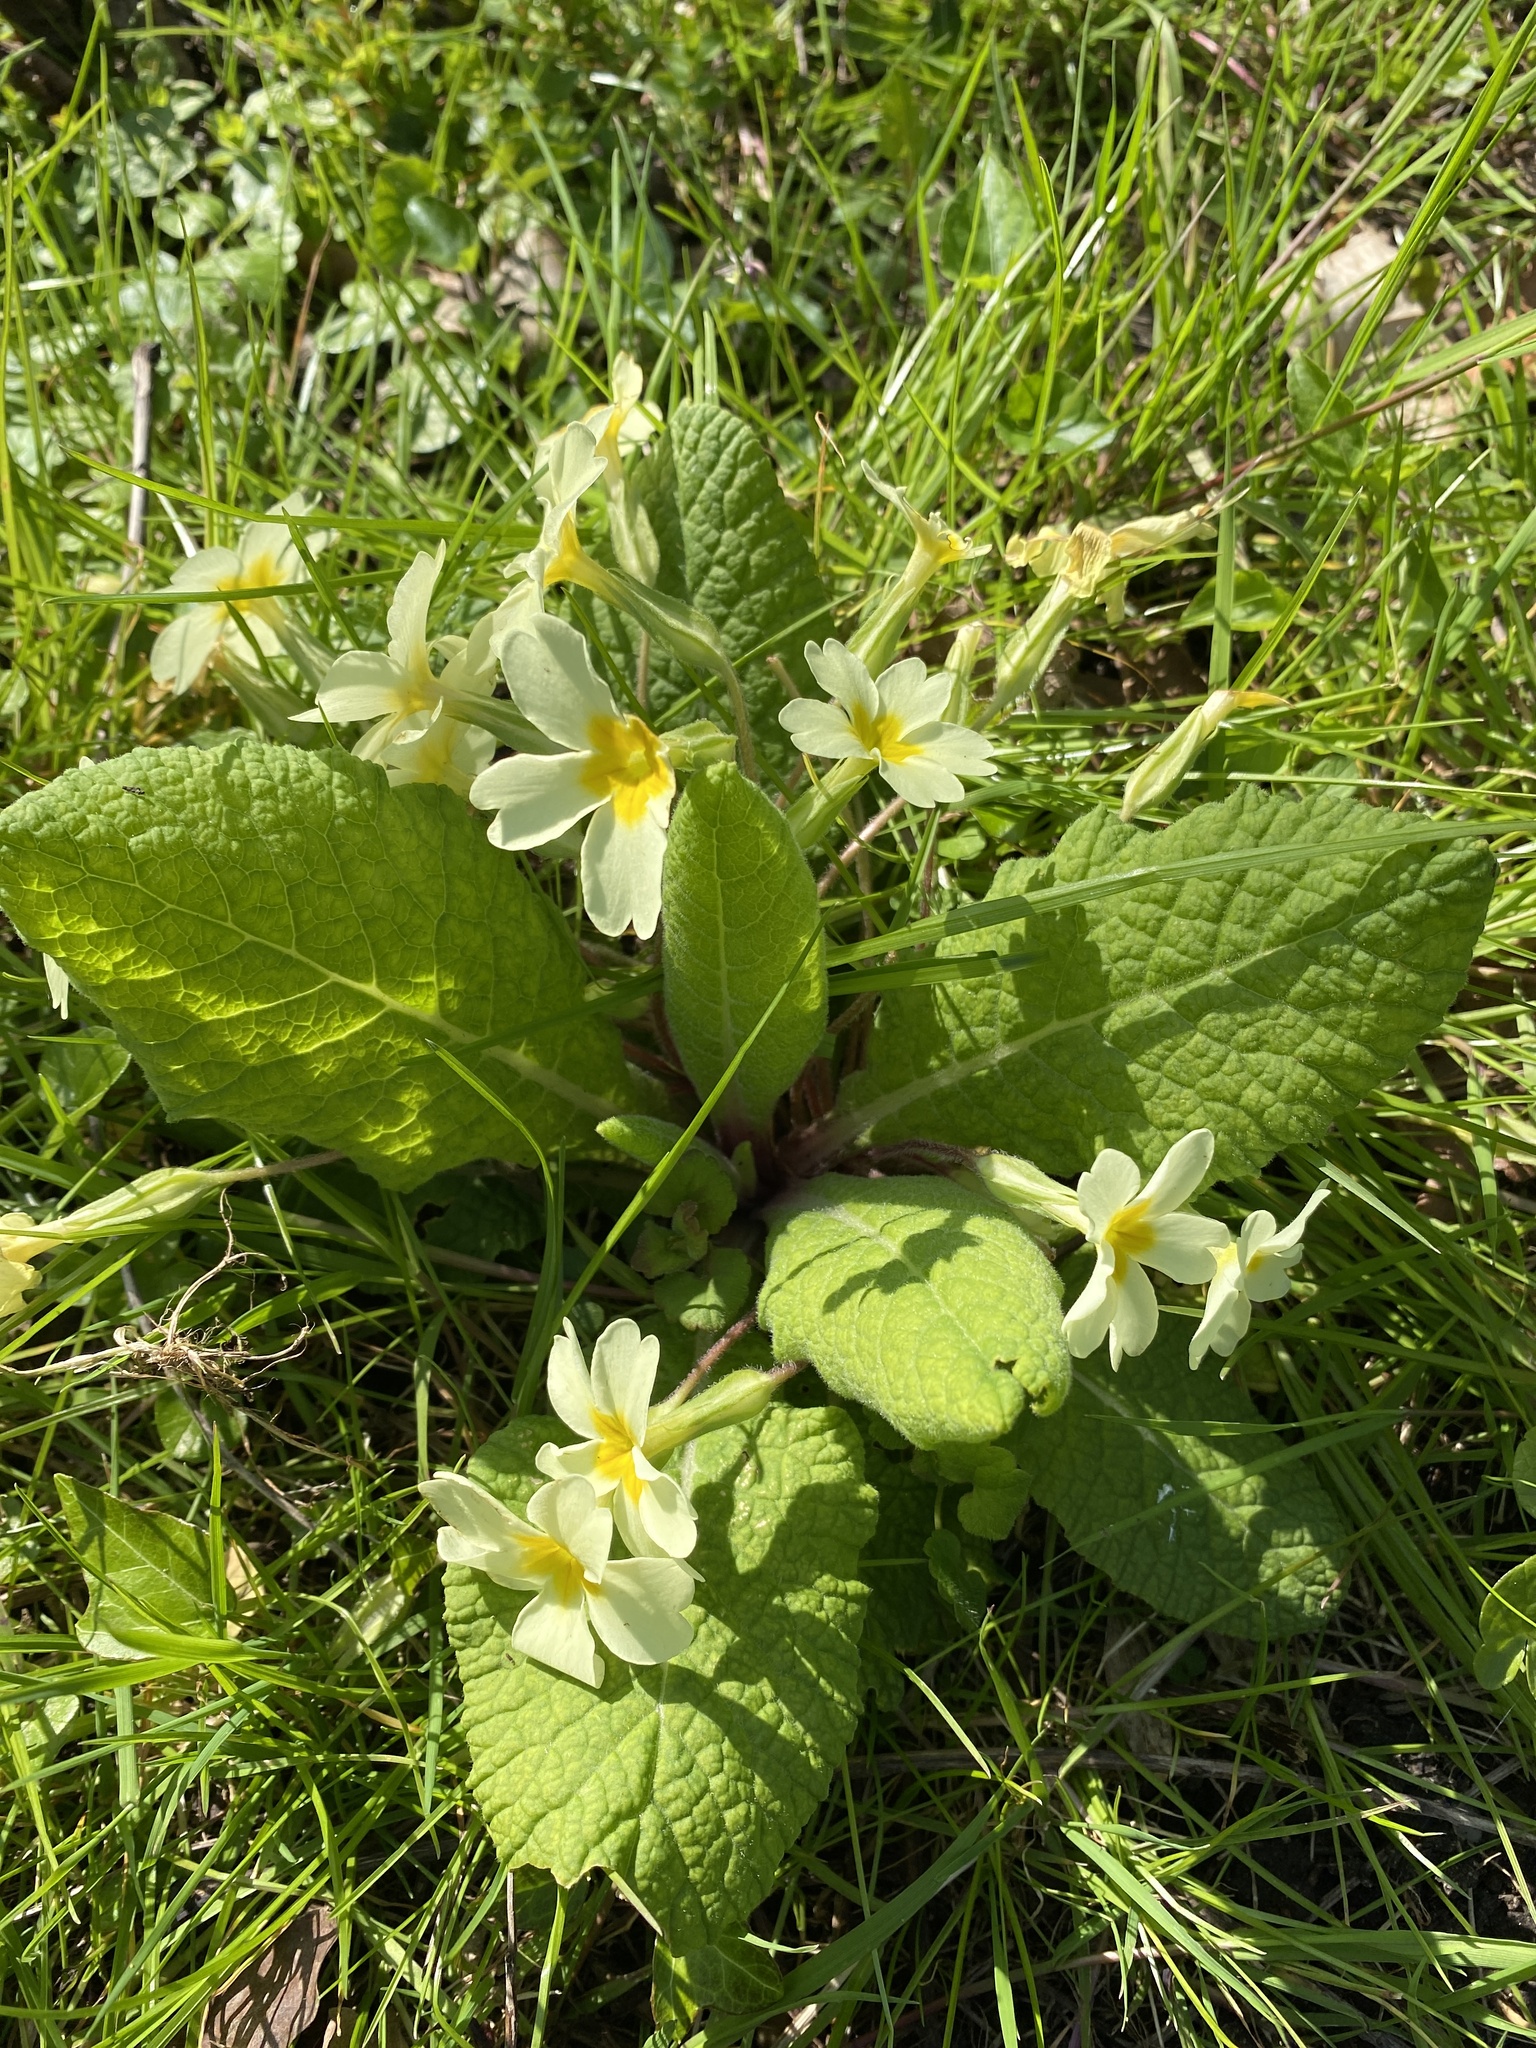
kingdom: Plantae
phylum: Tracheophyta
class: Magnoliopsida
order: Ericales
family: Primulaceae
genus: Primula
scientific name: Primula vulgaris
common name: Primrose
